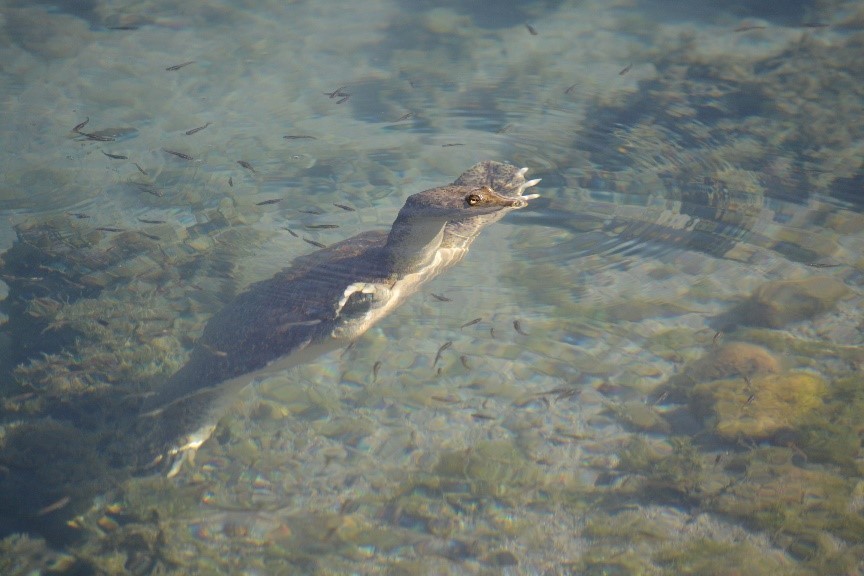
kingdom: Animalia
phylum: Chordata
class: Testudines
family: Trionychidae
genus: Apalone
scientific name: Apalone spinifera
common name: Spiny softshell turtle
